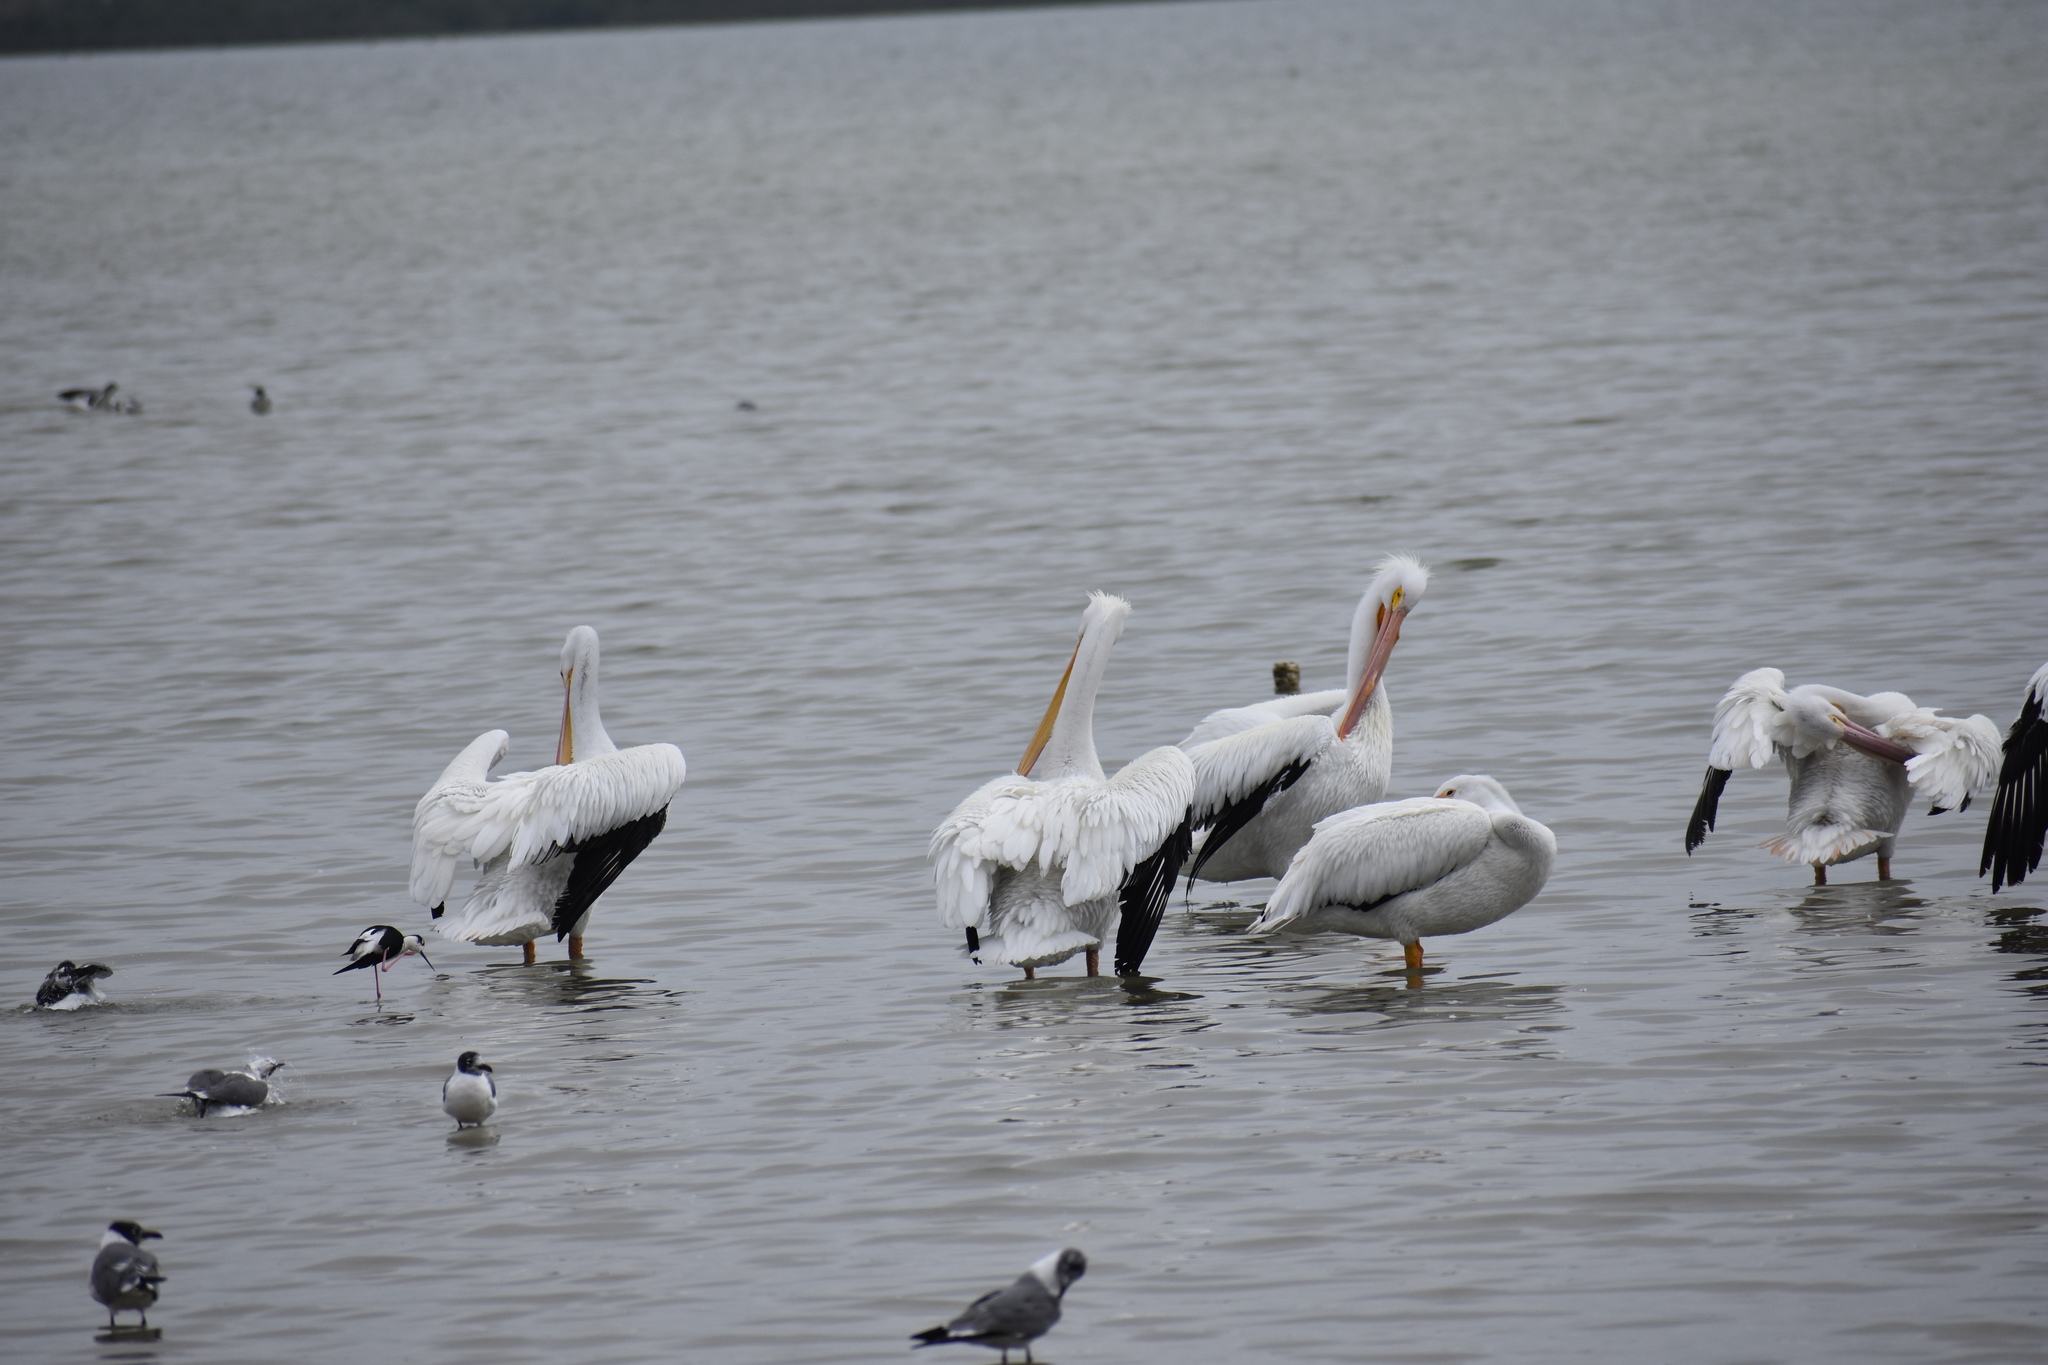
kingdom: Animalia
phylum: Chordata
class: Aves
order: Pelecaniformes
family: Pelecanidae
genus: Pelecanus
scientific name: Pelecanus erythrorhynchos
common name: American white pelican
